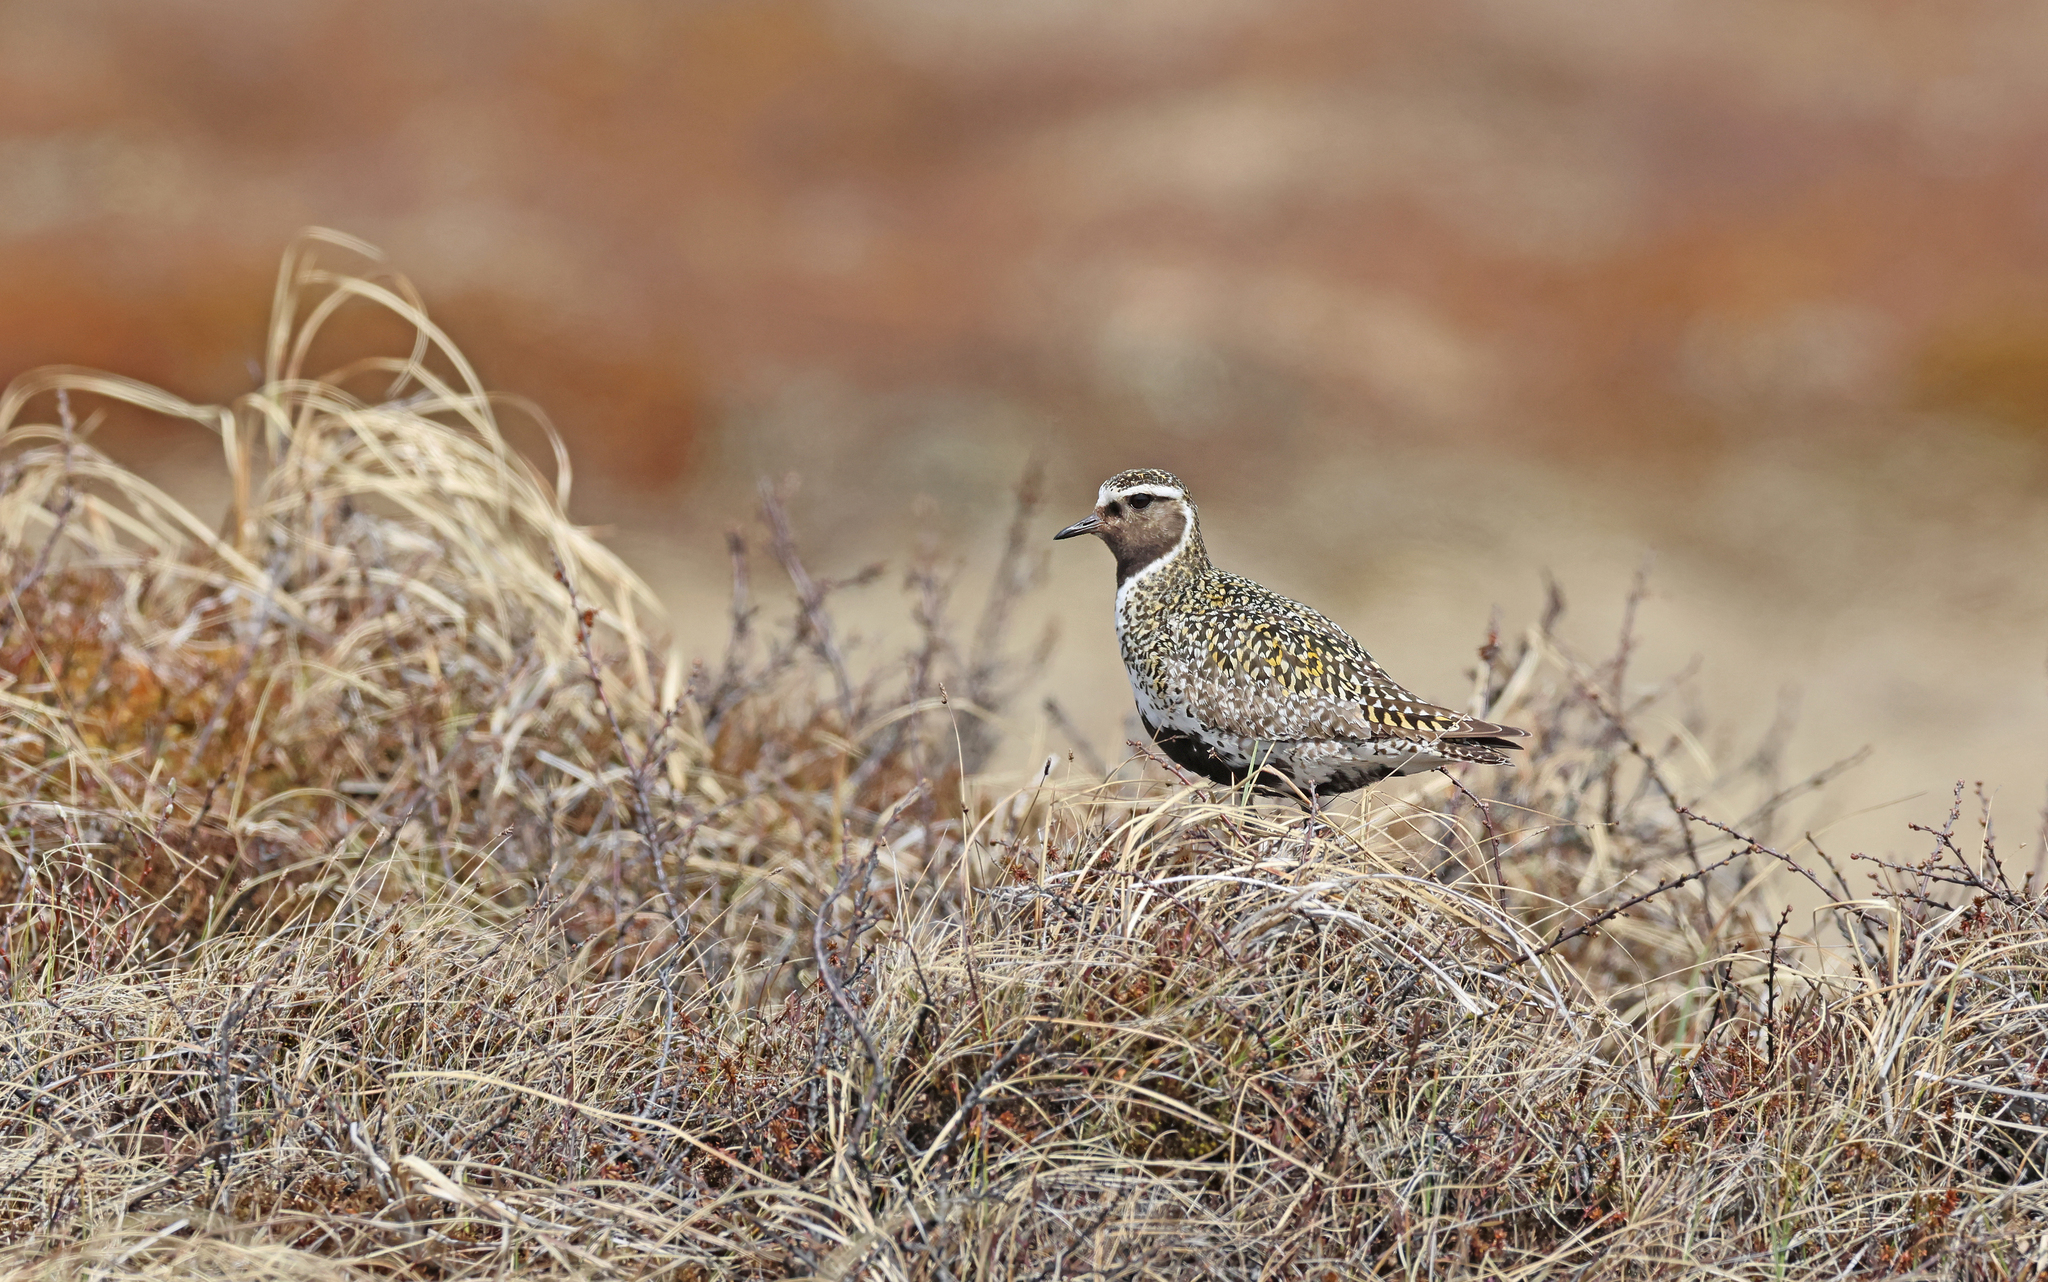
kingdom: Animalia
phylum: Chordata
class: Aves
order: Charadriiformes
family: Charadriidae
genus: Pluvialis
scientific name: Pluvialis apricaria
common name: European golden plover
